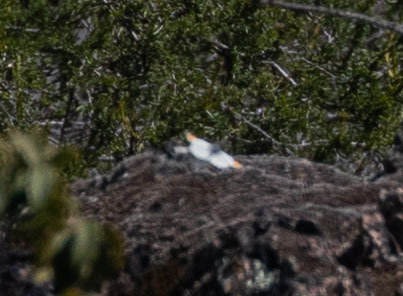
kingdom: Animalia
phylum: Arthropoda
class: Insecta
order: Lepidoptera
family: Pieridae
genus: Anthocharis
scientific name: Anthocharis sara
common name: Sara's orangetip
